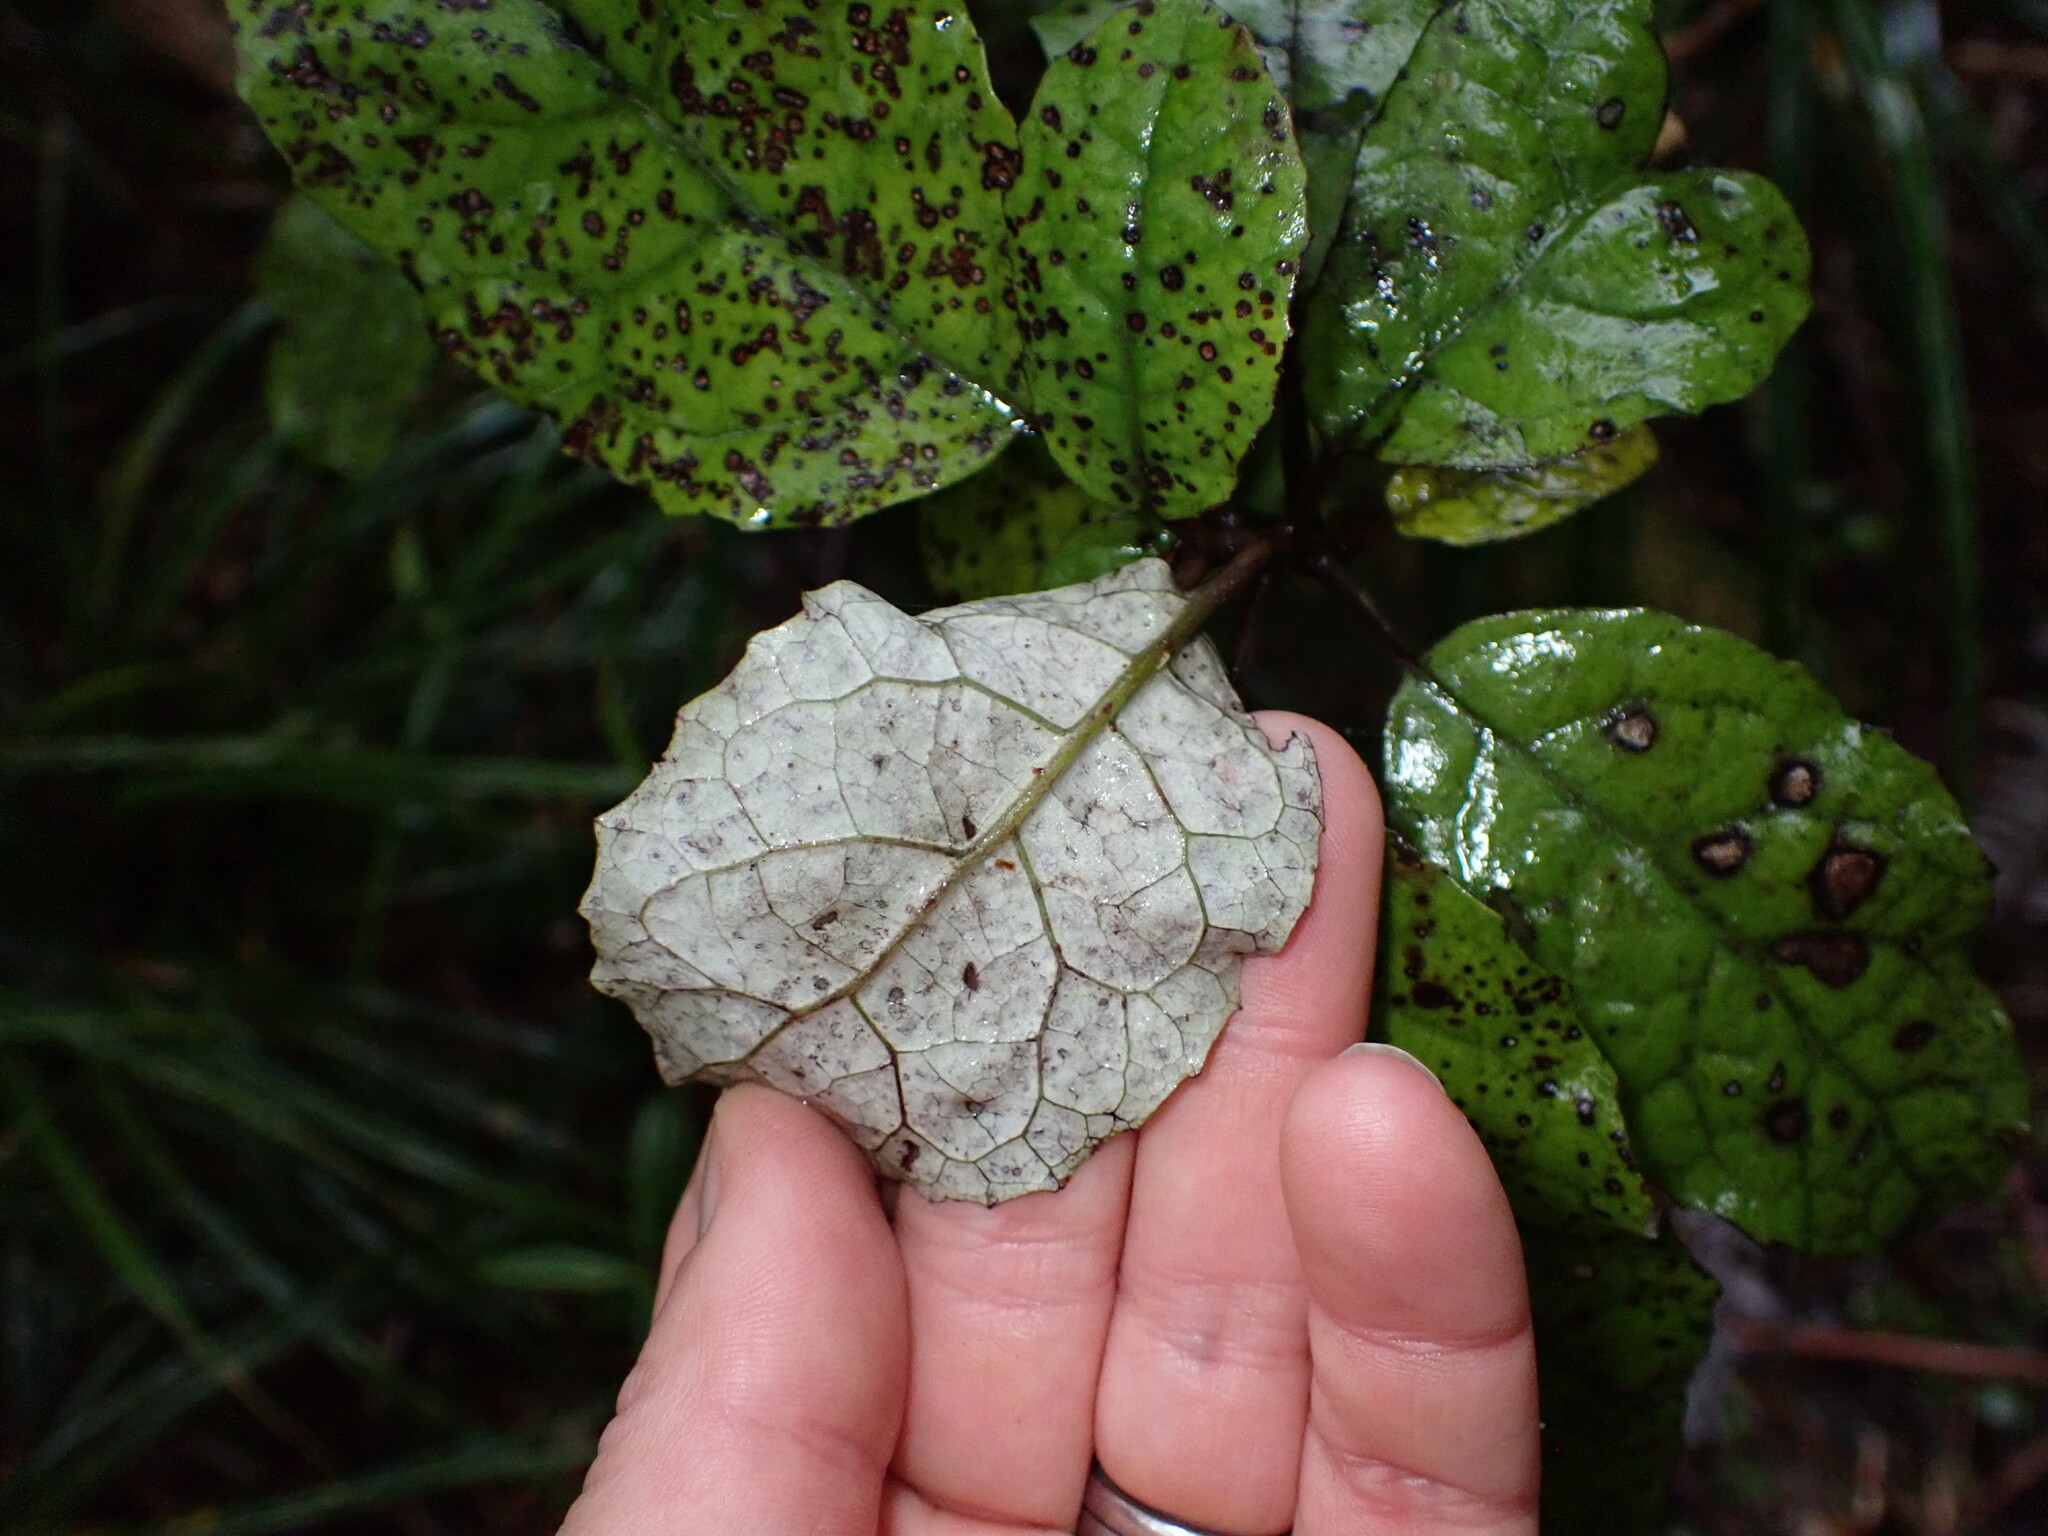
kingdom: Plantae
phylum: Tracheophyta
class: Magnoliopsida
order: Asterales
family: Asteraceae
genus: Olearia
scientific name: Olearia rani
